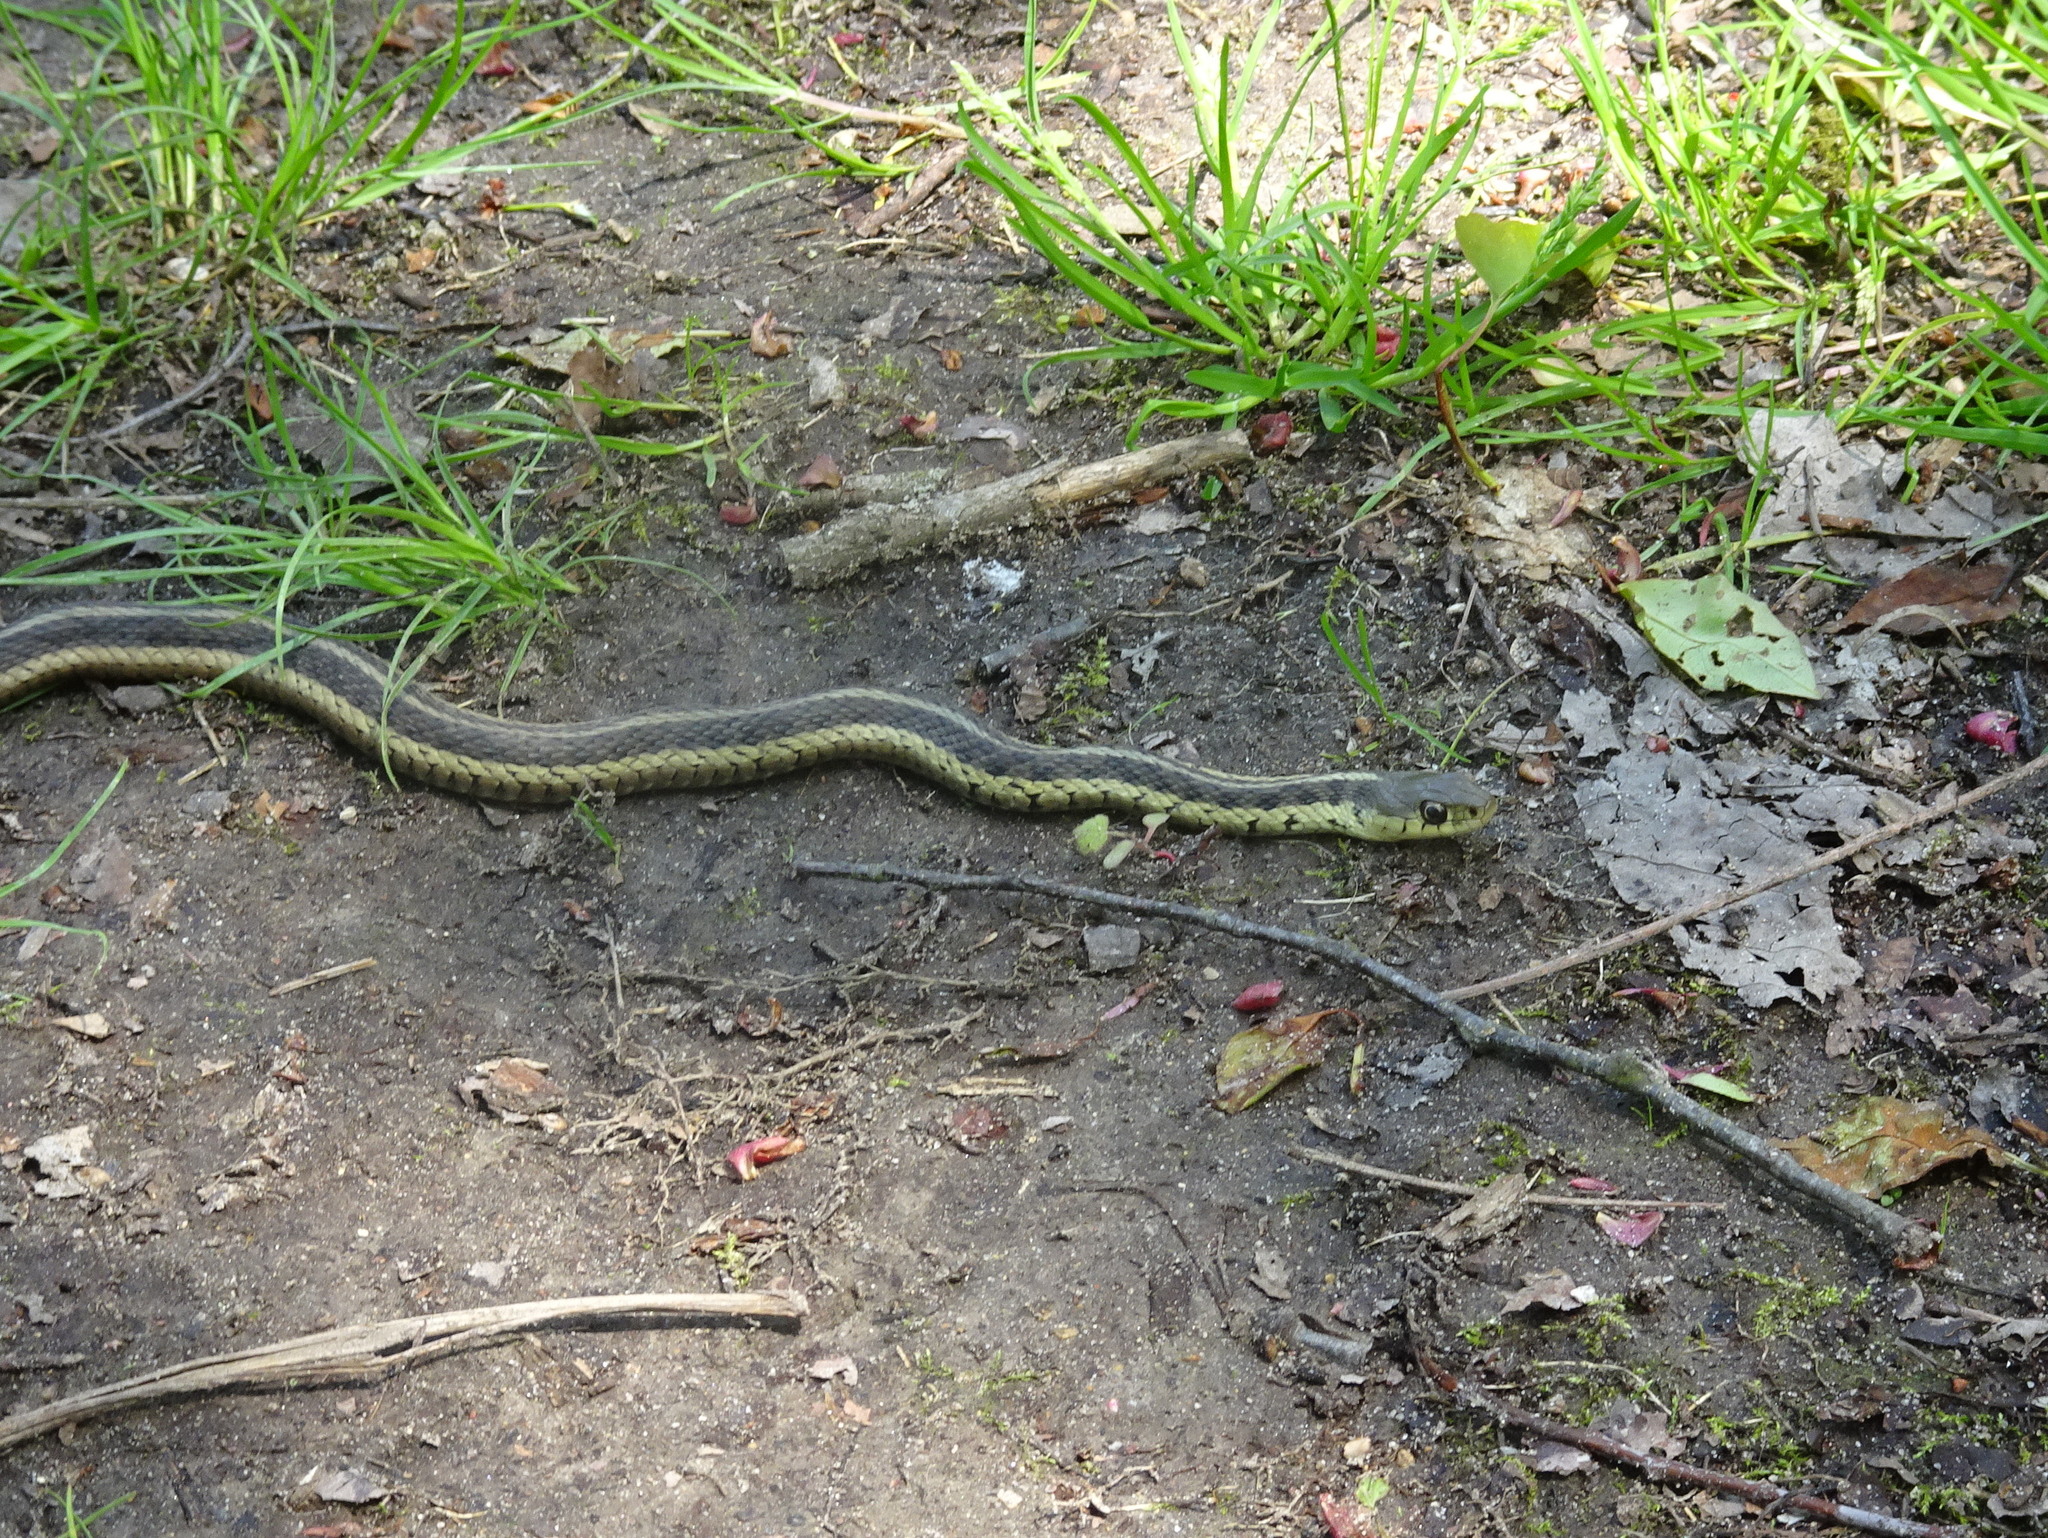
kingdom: Animalia
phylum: Chordata
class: Squamata
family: Colubridae
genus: Thamnophis
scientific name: Thamnophis sirtalis
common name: Common garter snake
